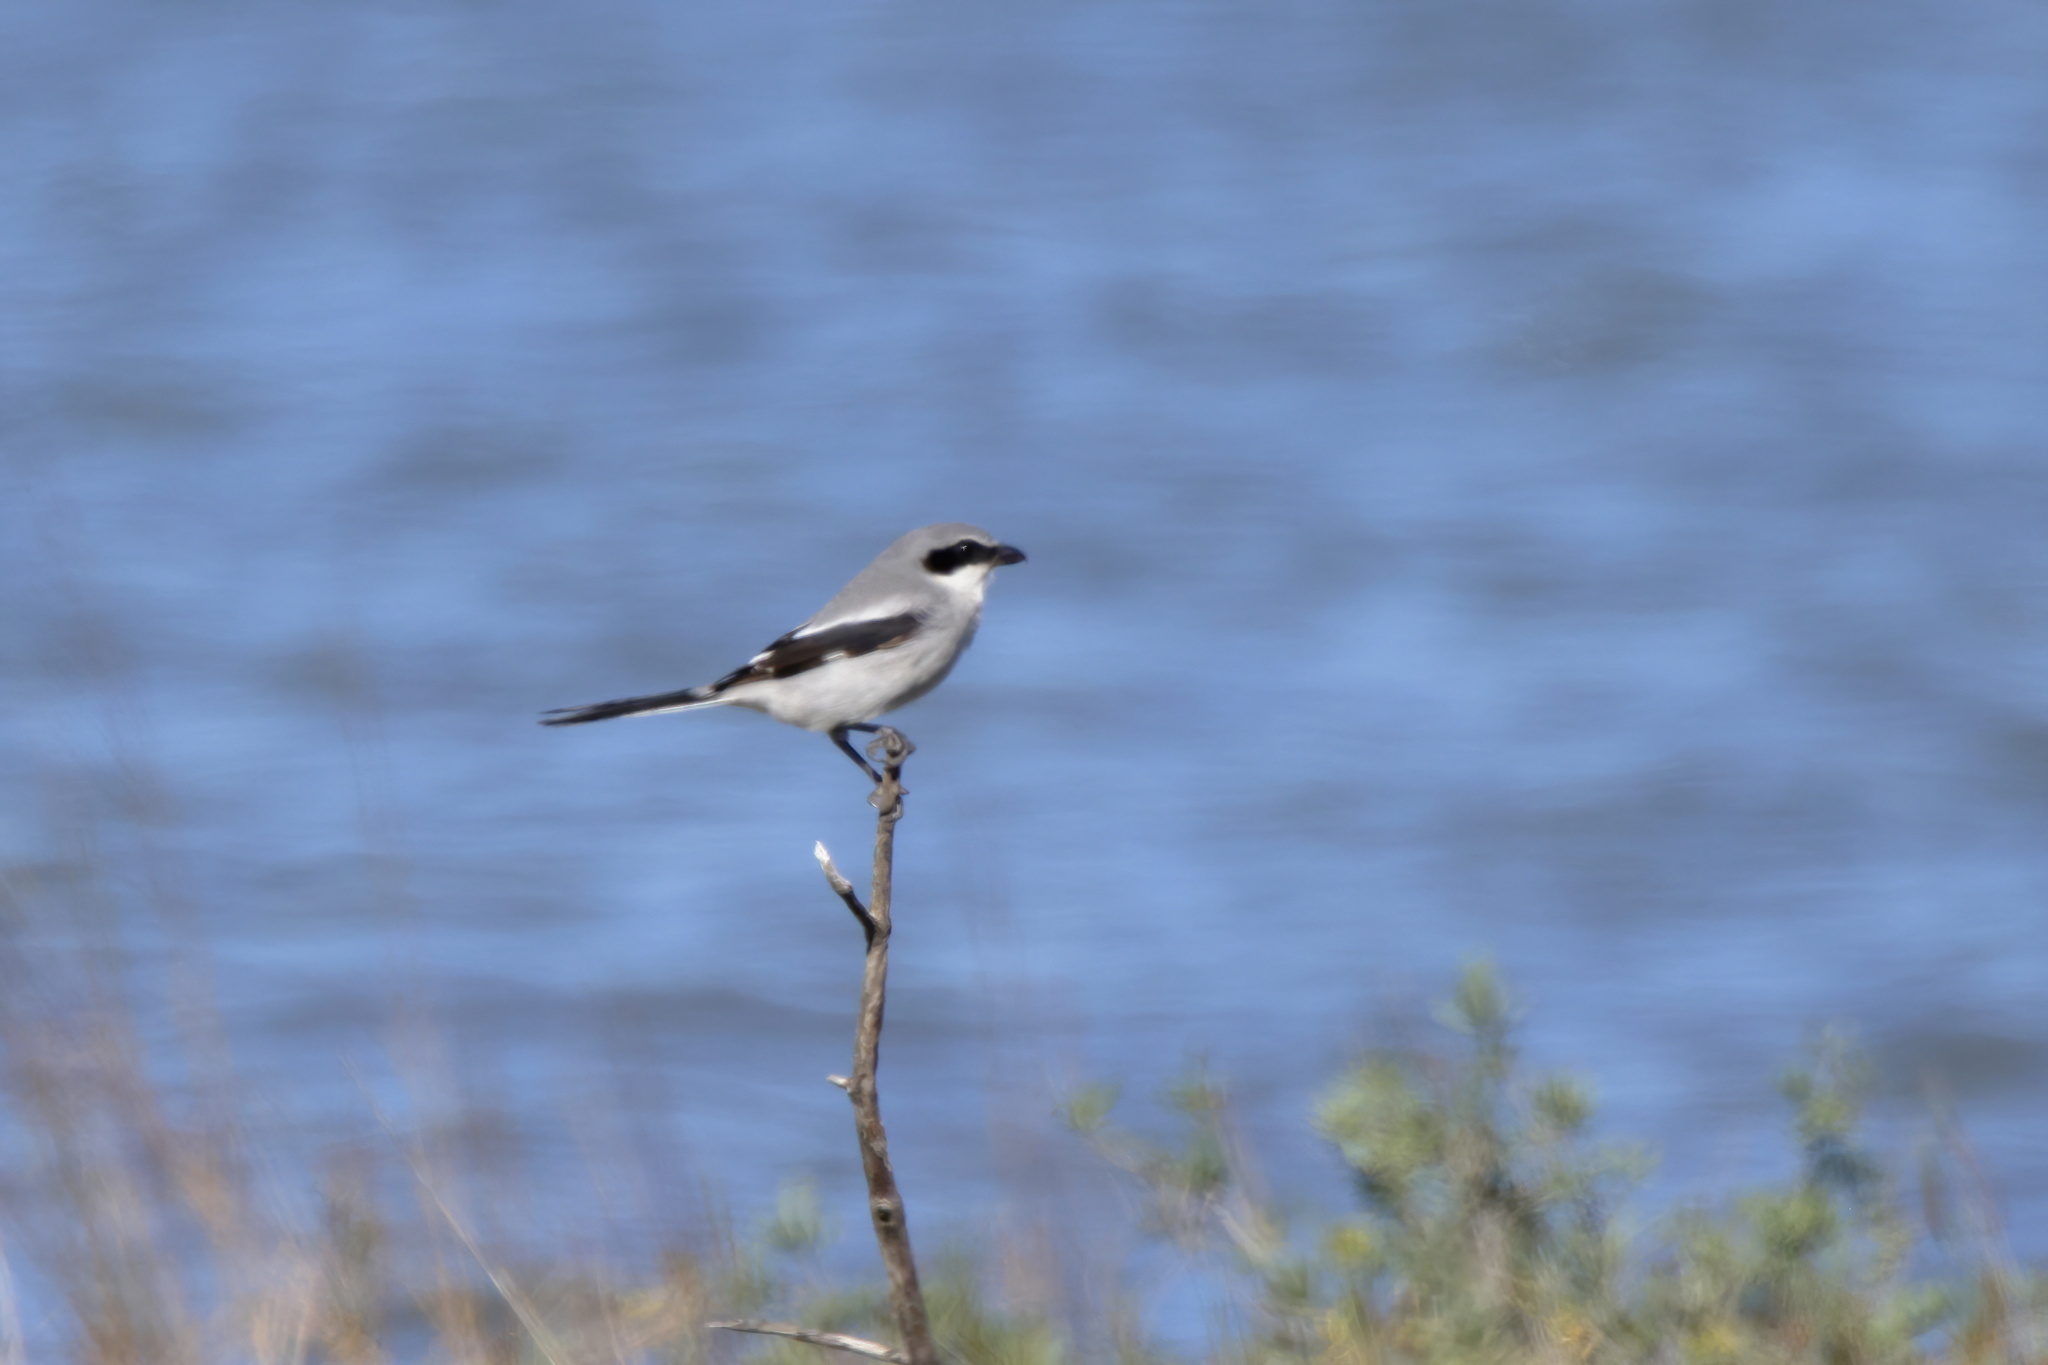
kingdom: Animalia
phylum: Chordata
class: Aves
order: Passeriformes
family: Laniidae
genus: Lanius
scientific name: Lanius ludovicianus
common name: Loggerhead shrike
